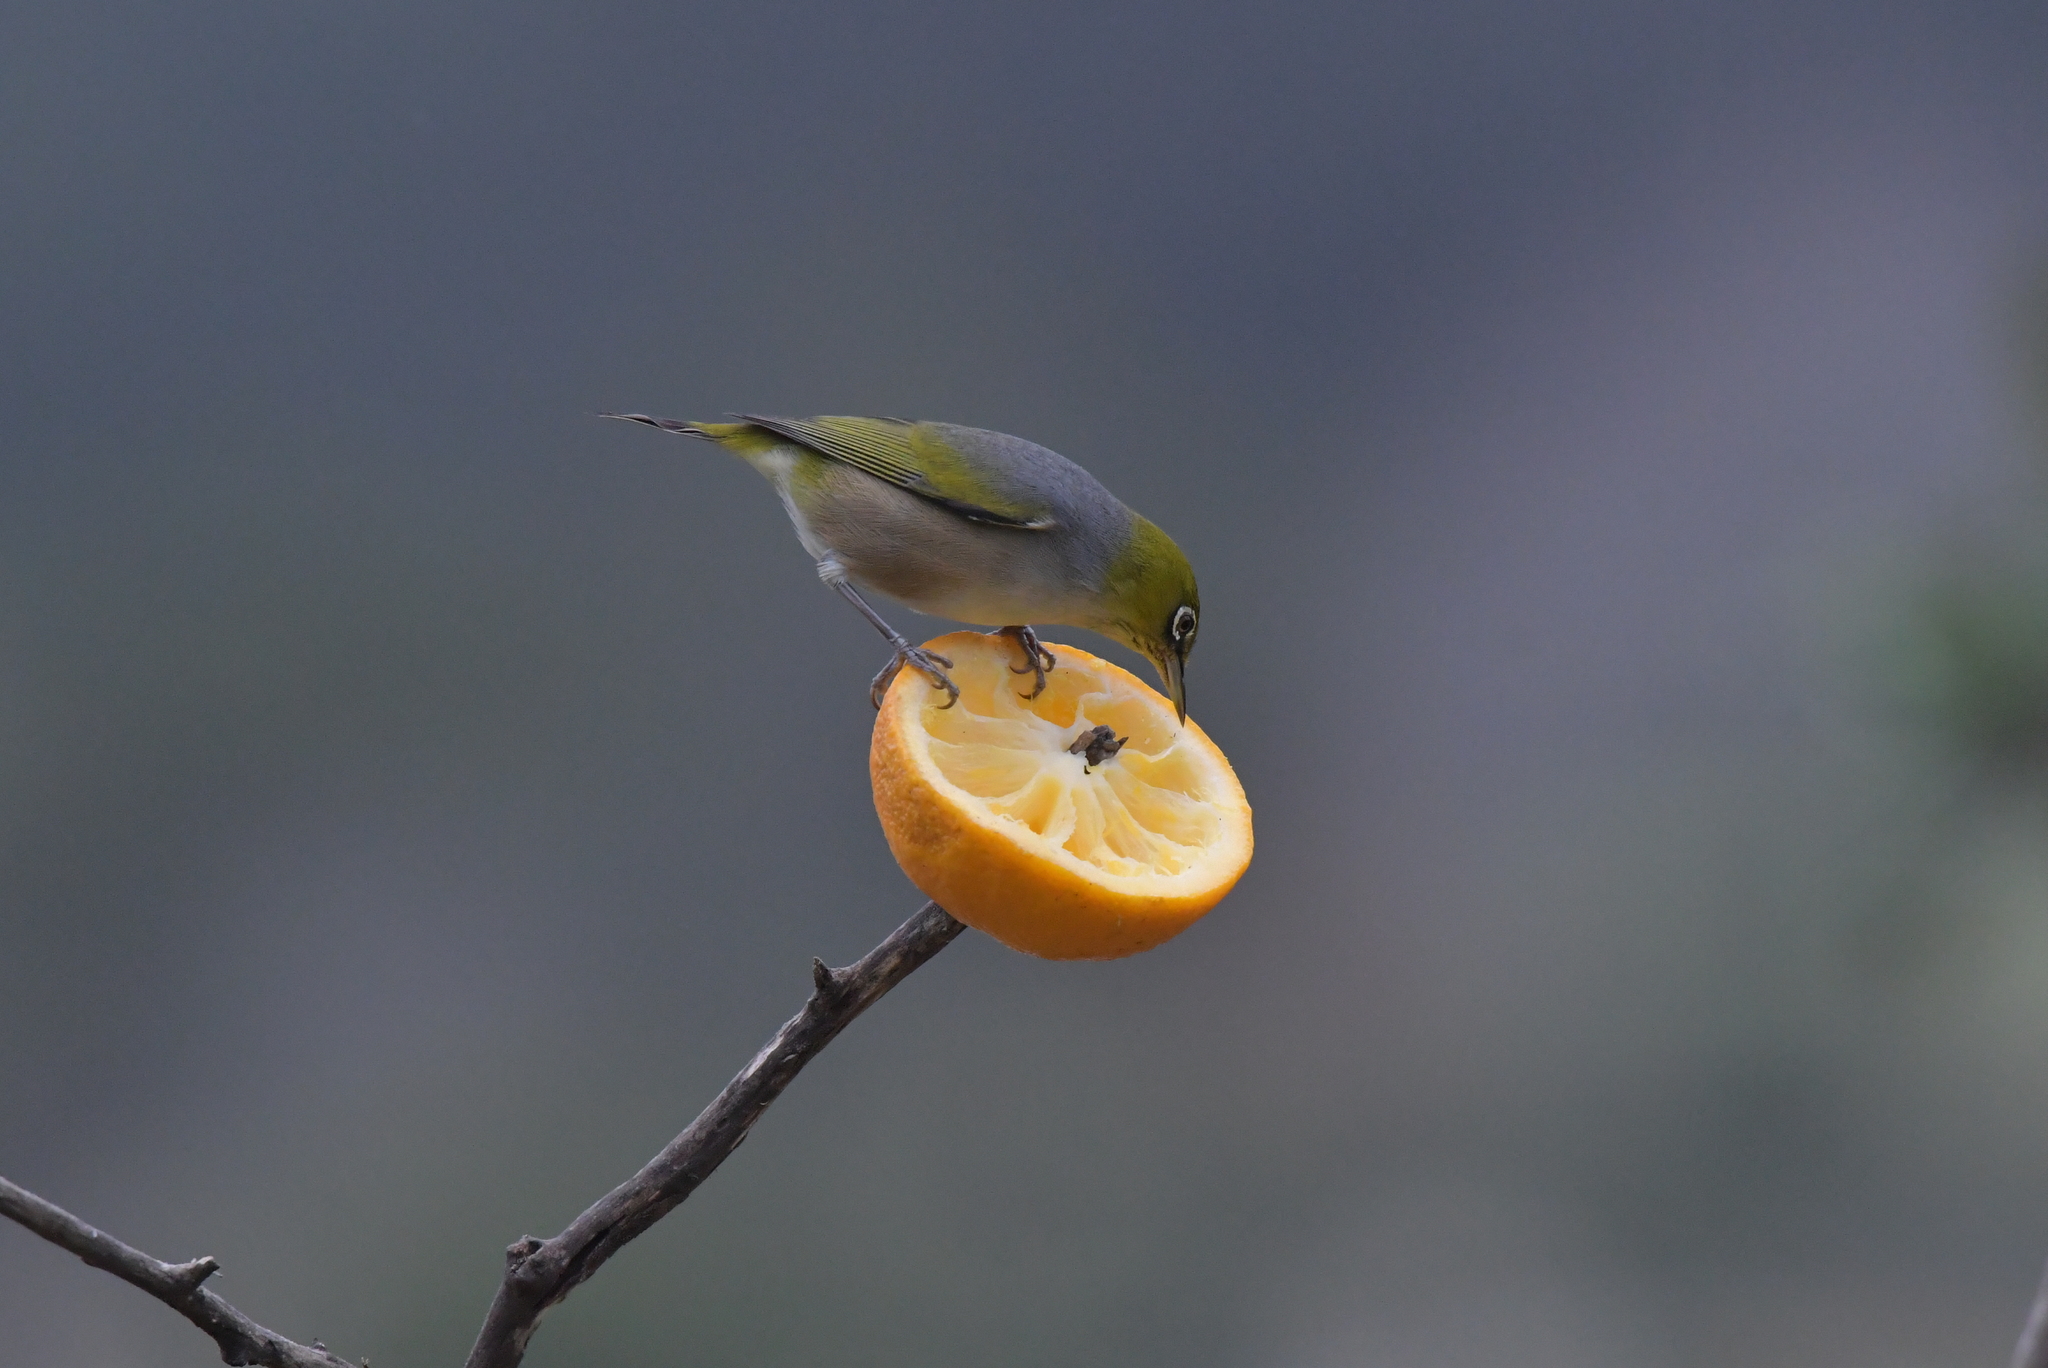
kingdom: Animalia
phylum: Chordata
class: Aves
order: Passeriformes
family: Zosteropidae
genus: Zosterops
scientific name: Zosterops lateralis
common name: Silvereye
